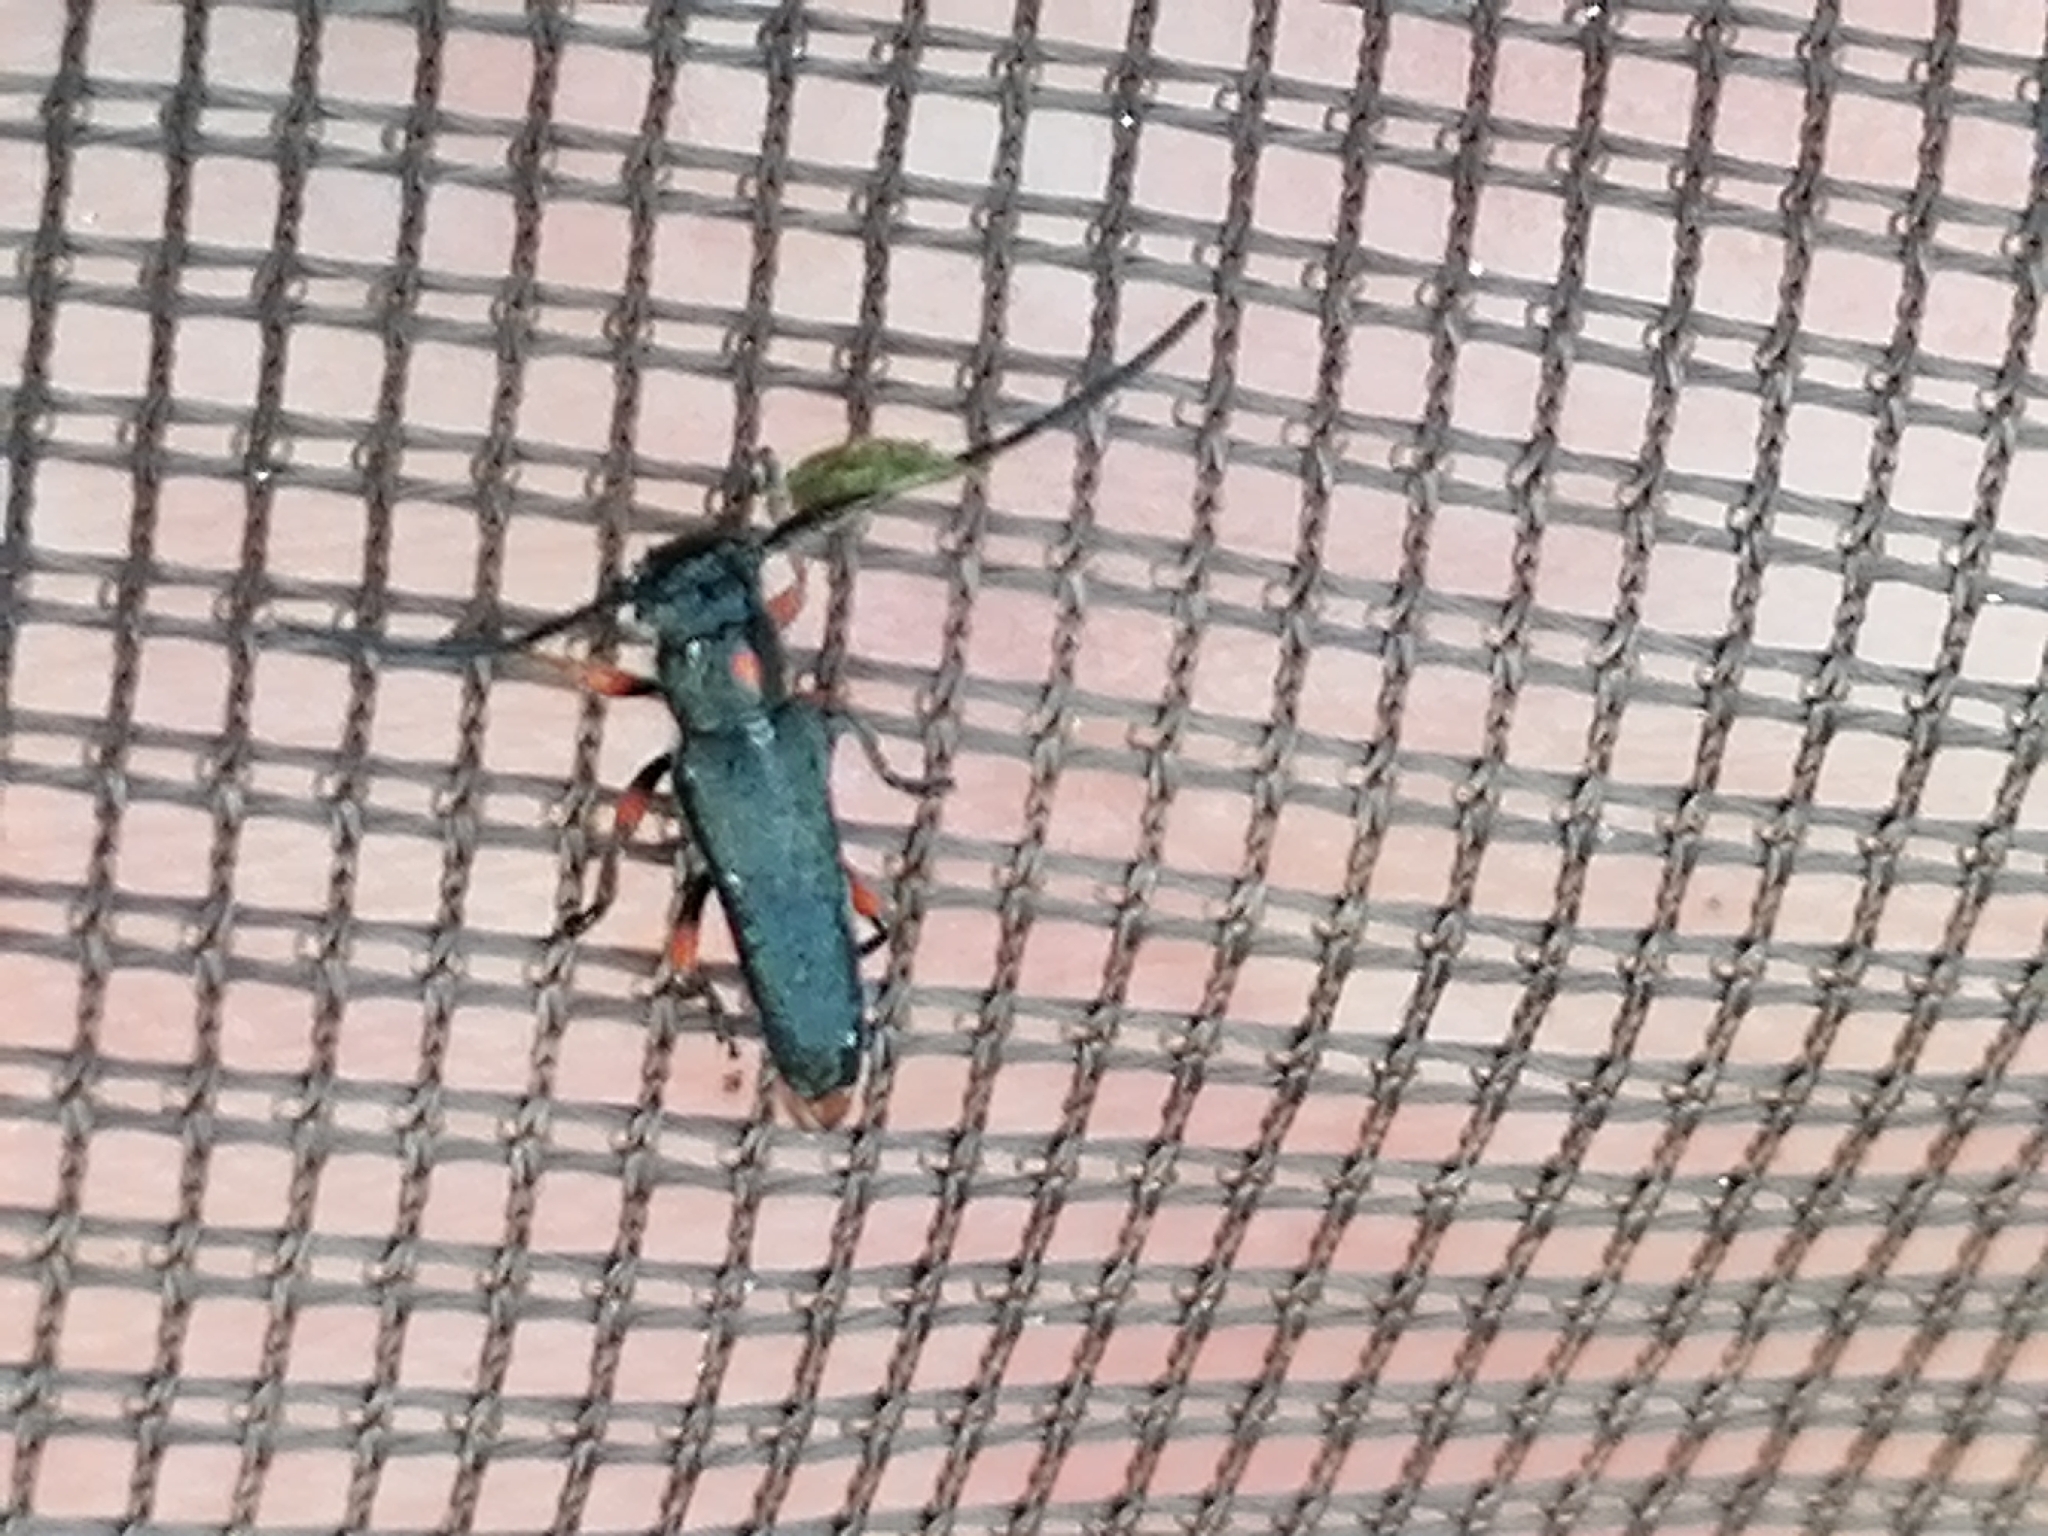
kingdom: Animalia
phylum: Arthropoda
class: Insecta
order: Coleoptera
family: Cerambycidae
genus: Phytoecia
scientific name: Phytoecia pustulata
